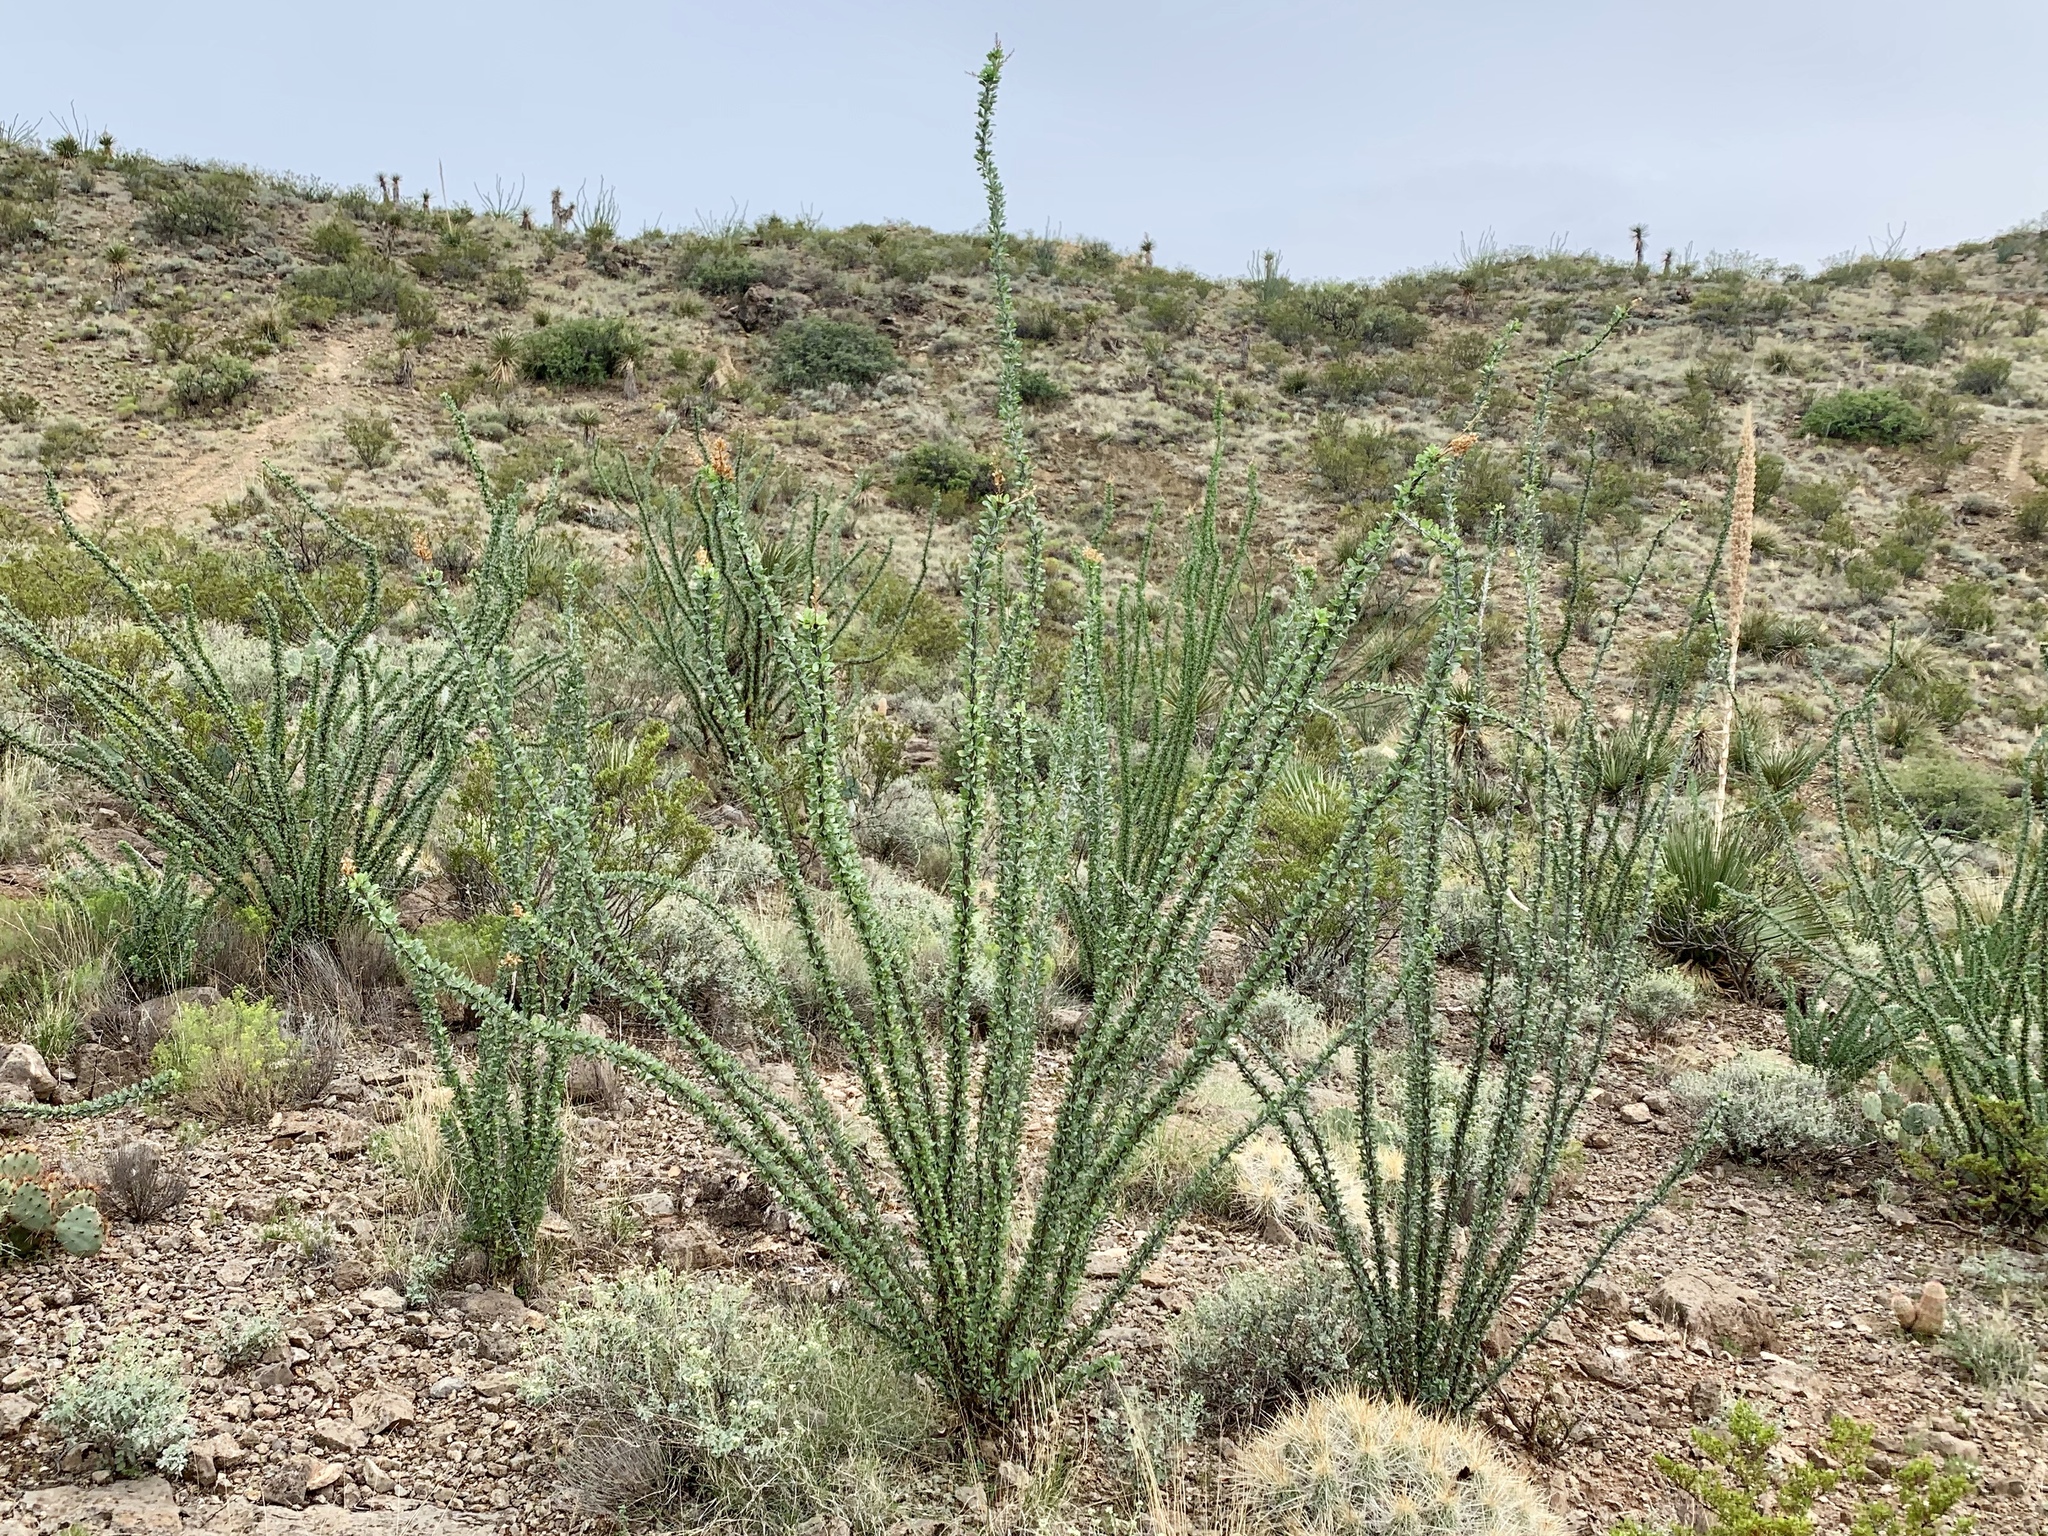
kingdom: Plantae
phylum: Tracheophyta
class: Magnoliopsida
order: Ericales
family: Fouquieriaceae
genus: Fouquieria
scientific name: Fouquieria splendens
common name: Vine-cactus
